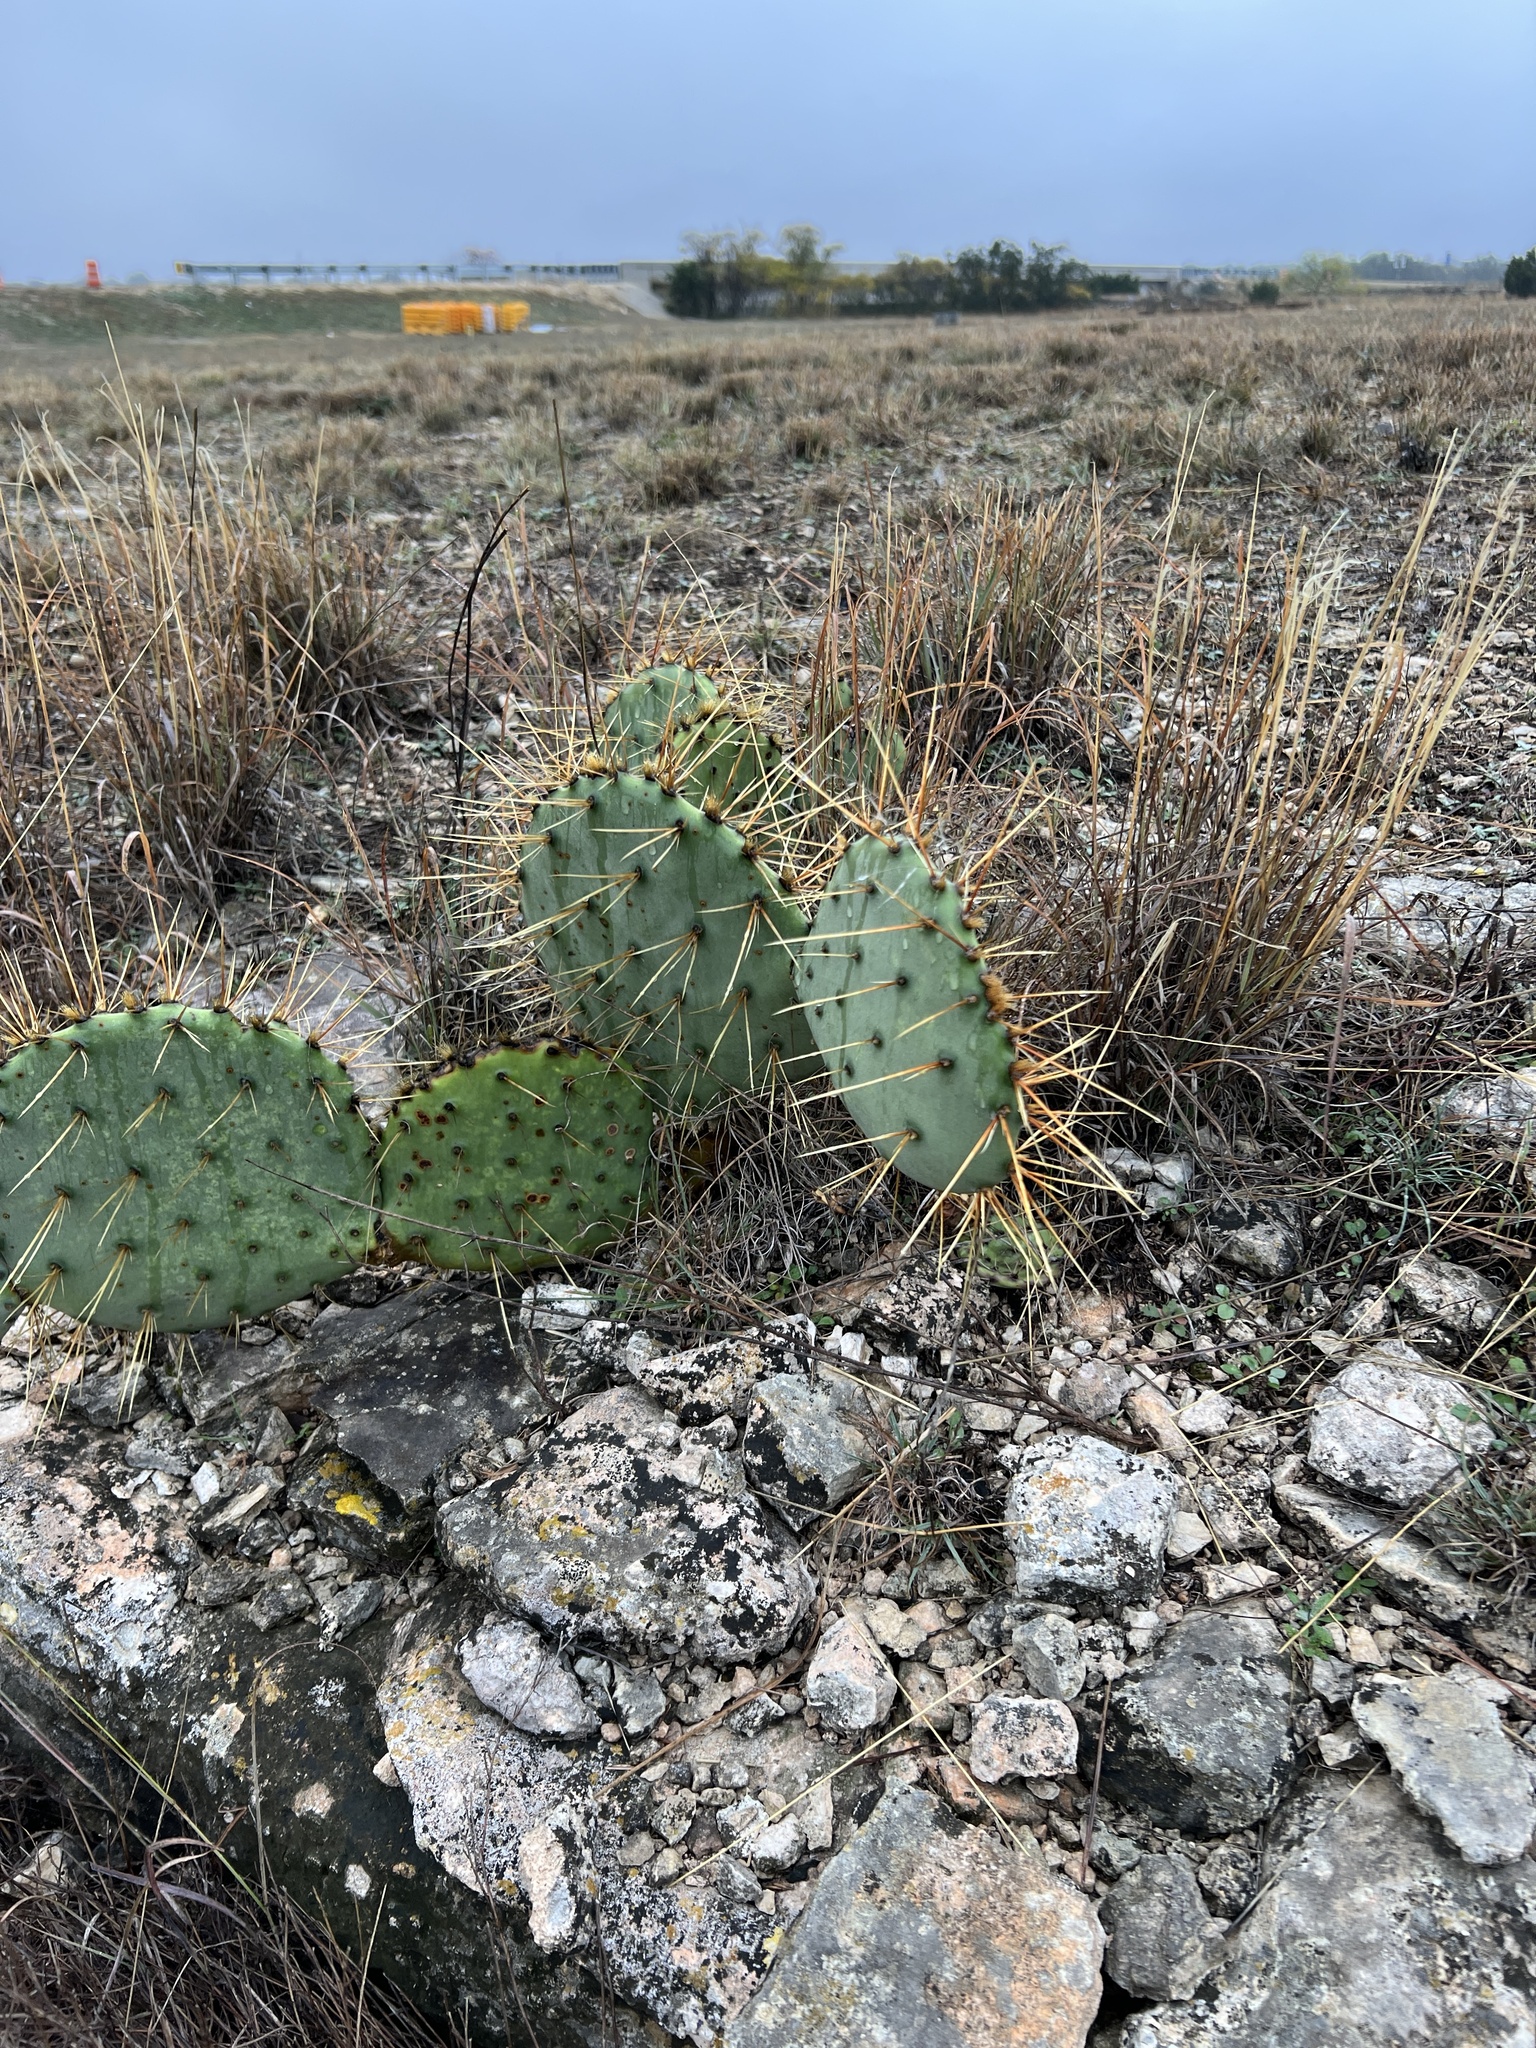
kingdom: Plantae
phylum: Tracheophyta
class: Magnoliopsida
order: Caryophyllales
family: Cactaceae
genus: Opuntia
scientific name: Opuntia engelmannii
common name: Cactus-apple
